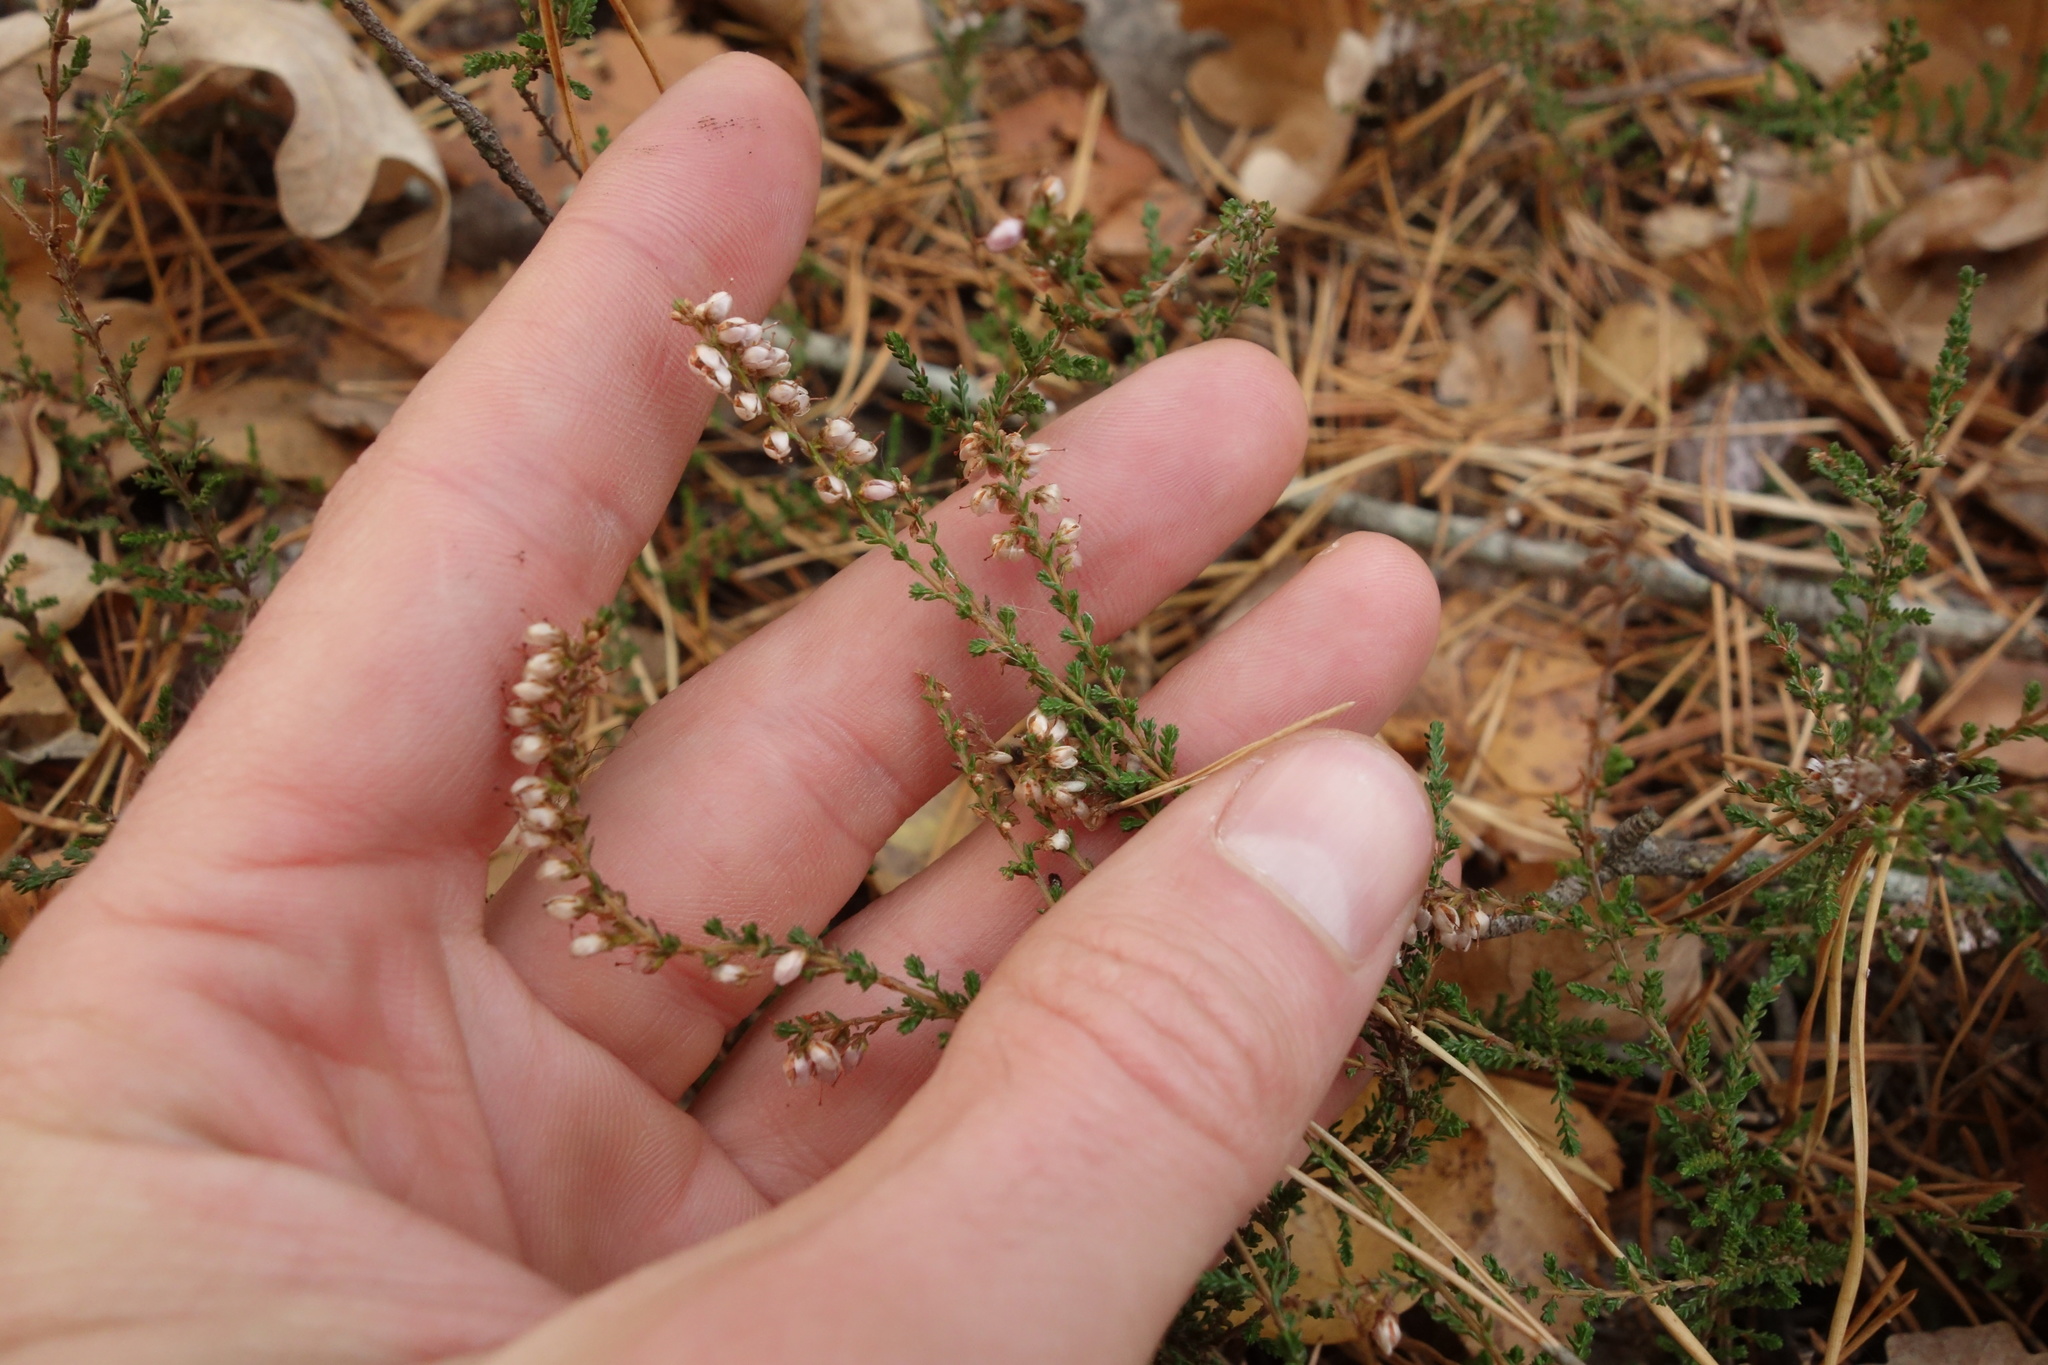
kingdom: Plantae
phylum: Tracheophyta
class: Magnoliopsida
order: Ericales
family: Ericaceae
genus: Calluna
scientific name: Calluna vulgaris
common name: Heather
